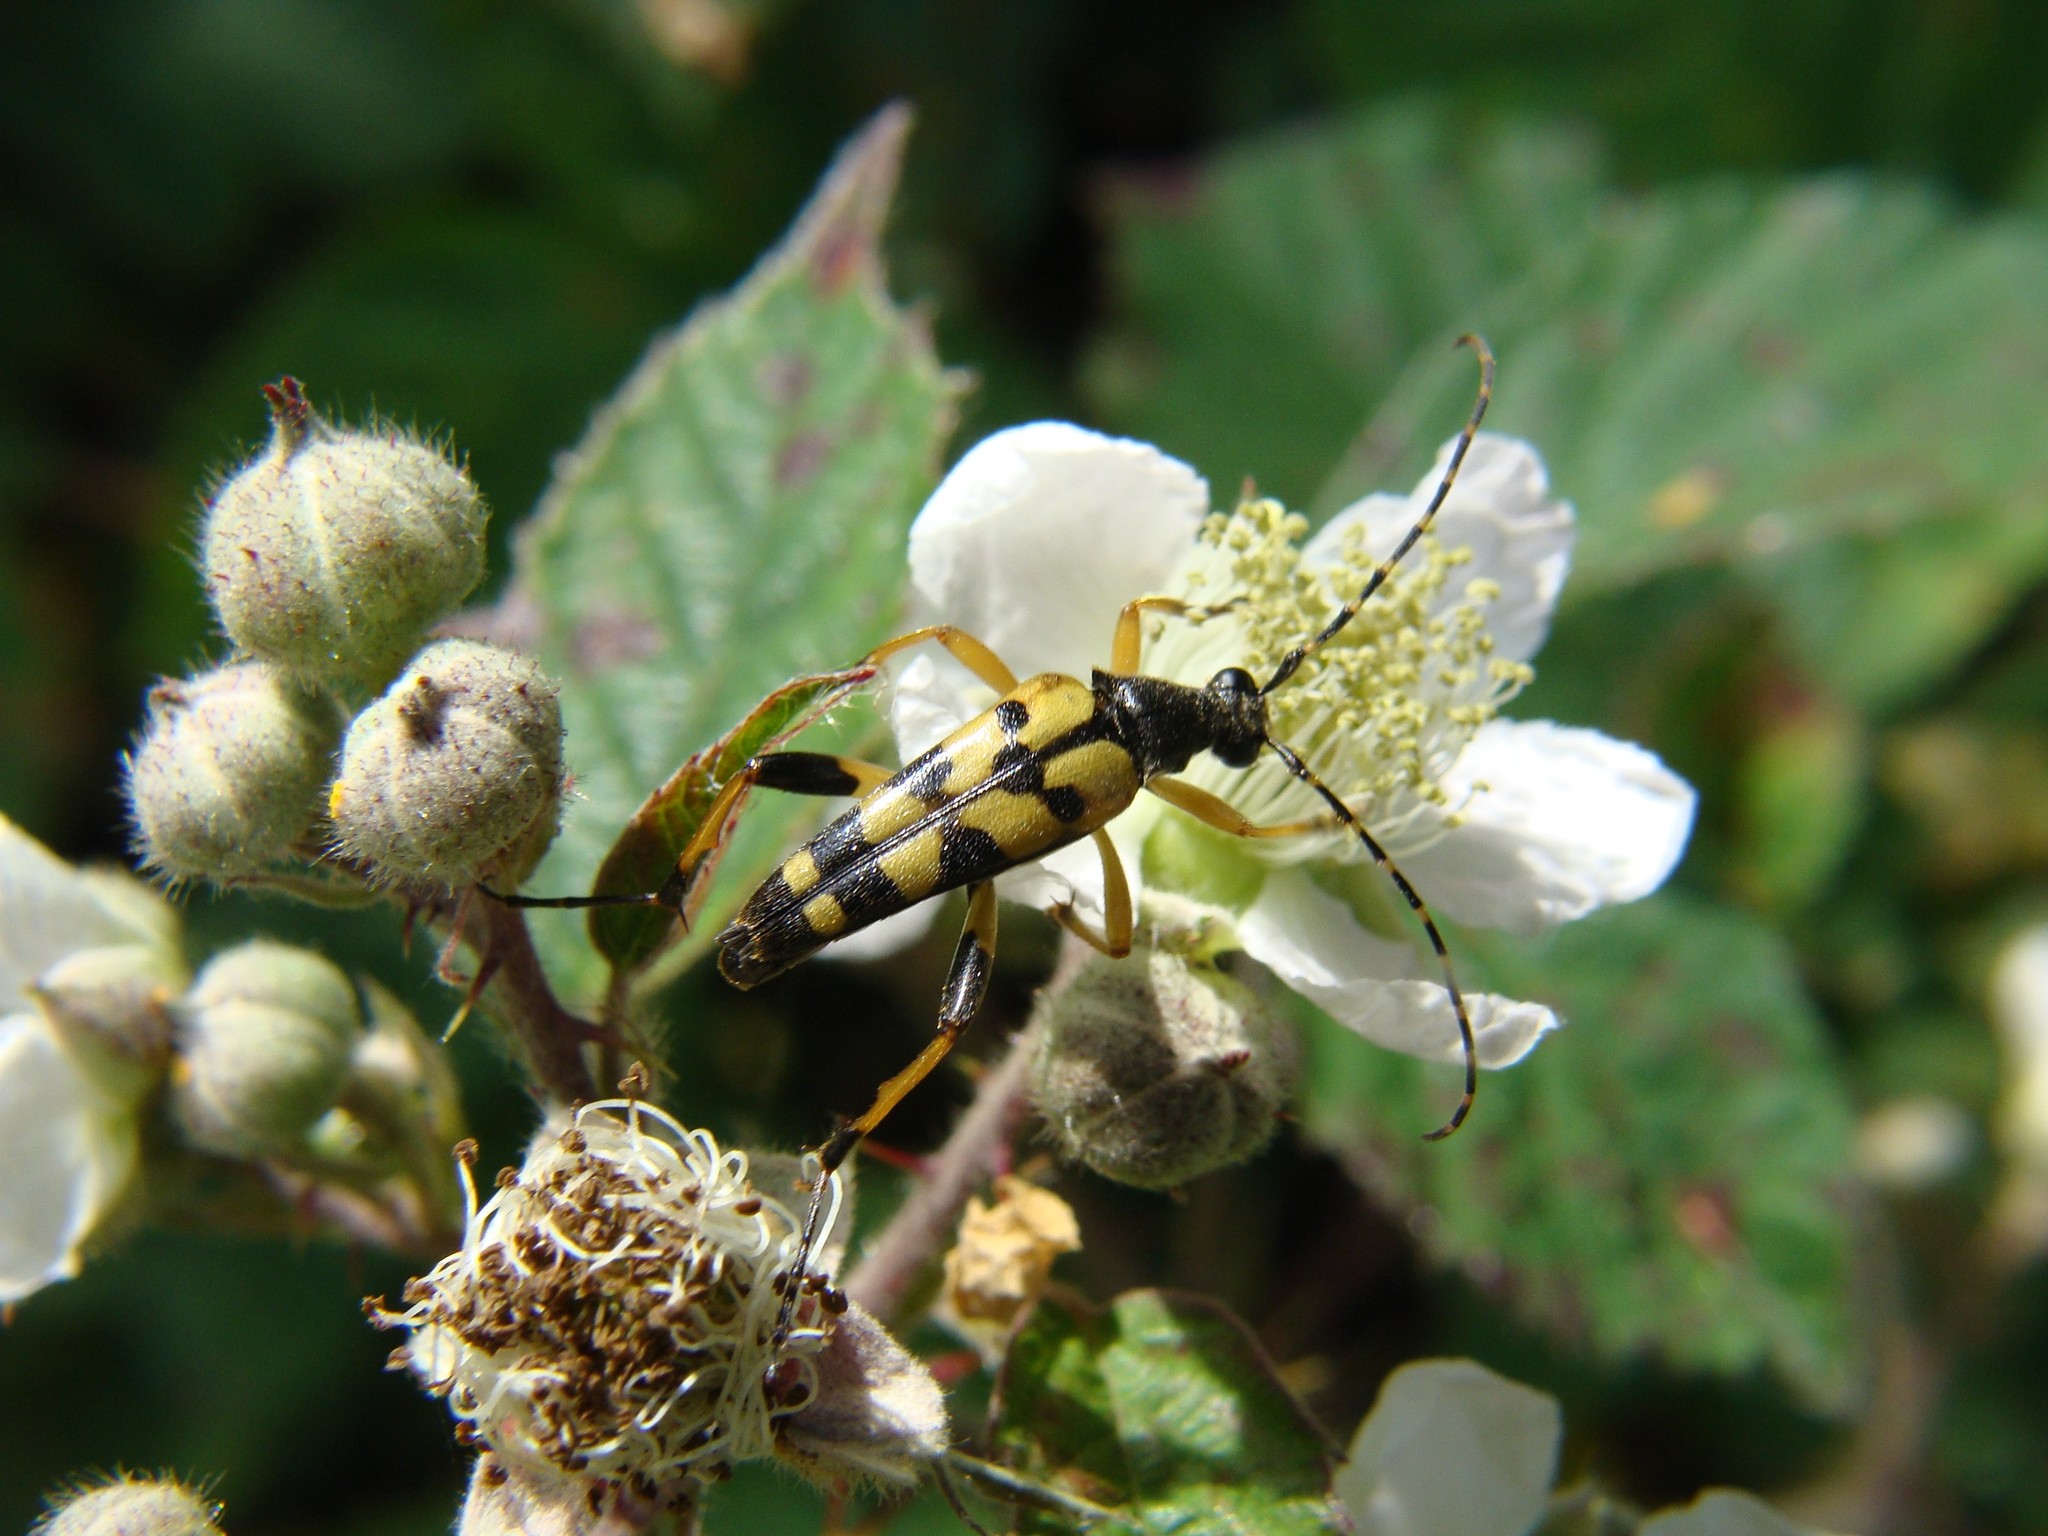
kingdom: Animalia
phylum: Arthropoda
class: Insecta
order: Coleoptera
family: Cerambycidae
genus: Rutpela
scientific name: Rutpela maculata
